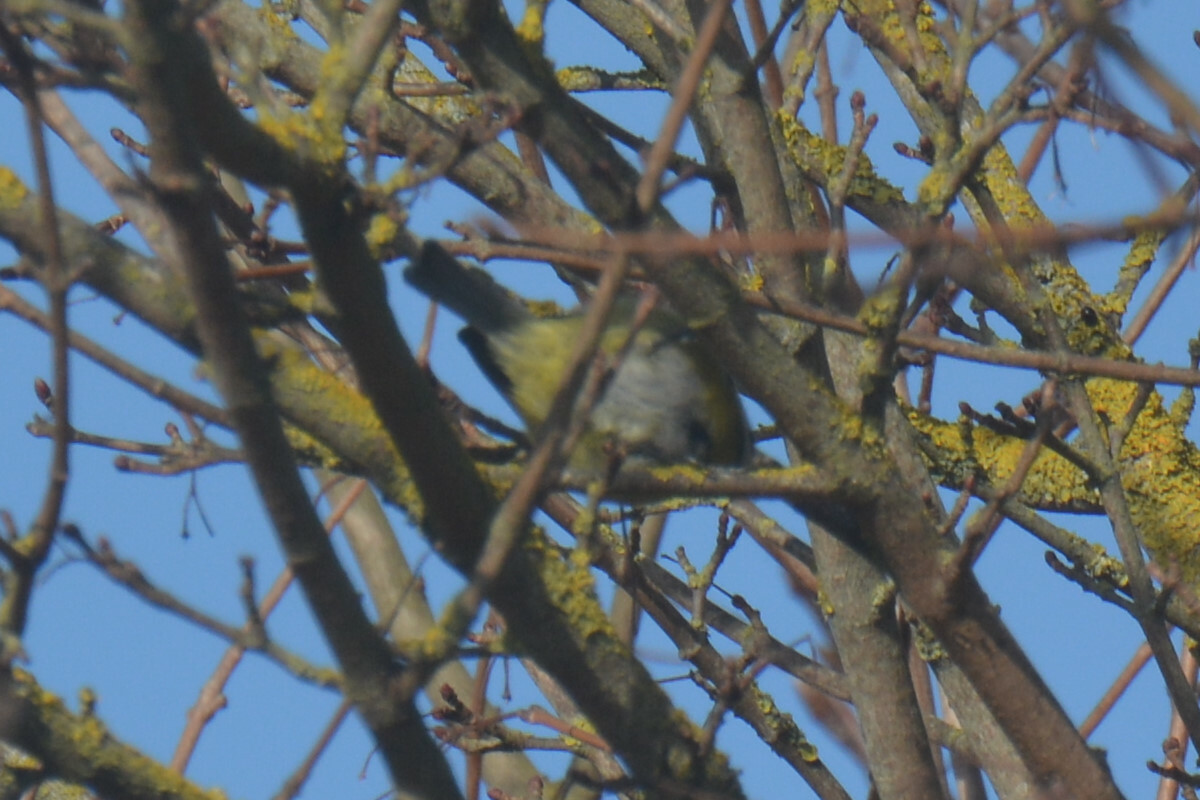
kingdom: Animalia
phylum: Chordata
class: Aves
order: Passeriformes
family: Paridae
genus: Cyanistes
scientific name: Cyanistes caeruleus
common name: Eurasian blue tit
